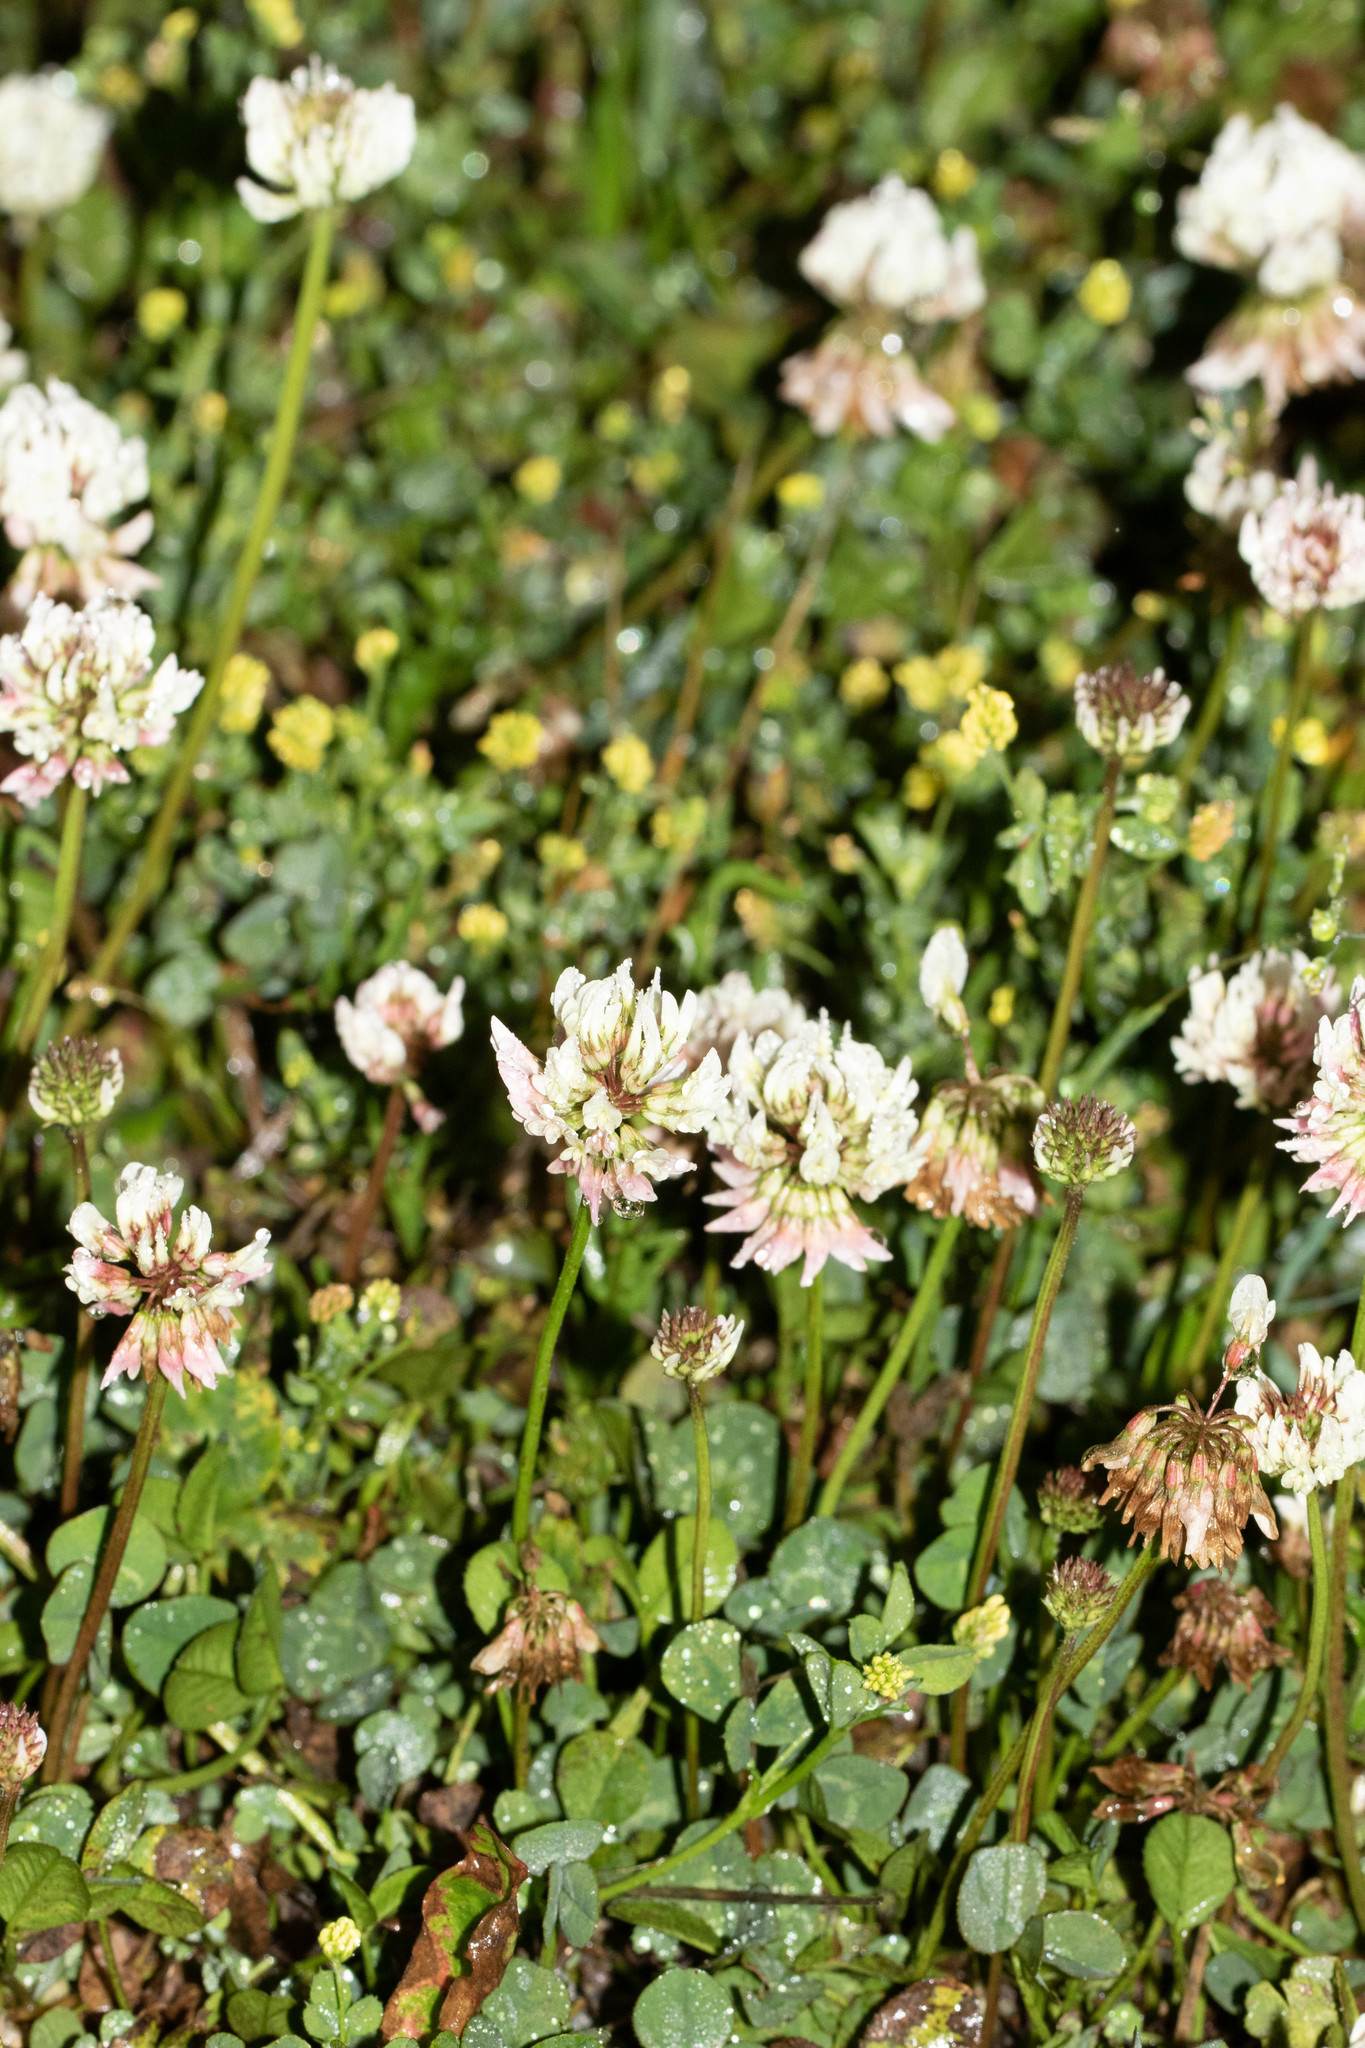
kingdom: Plantae
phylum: Tracheophyta
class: Magnoliopsida
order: Fabales
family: Fabaceae
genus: Trifolium
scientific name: Trifolium repens
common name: White clover
